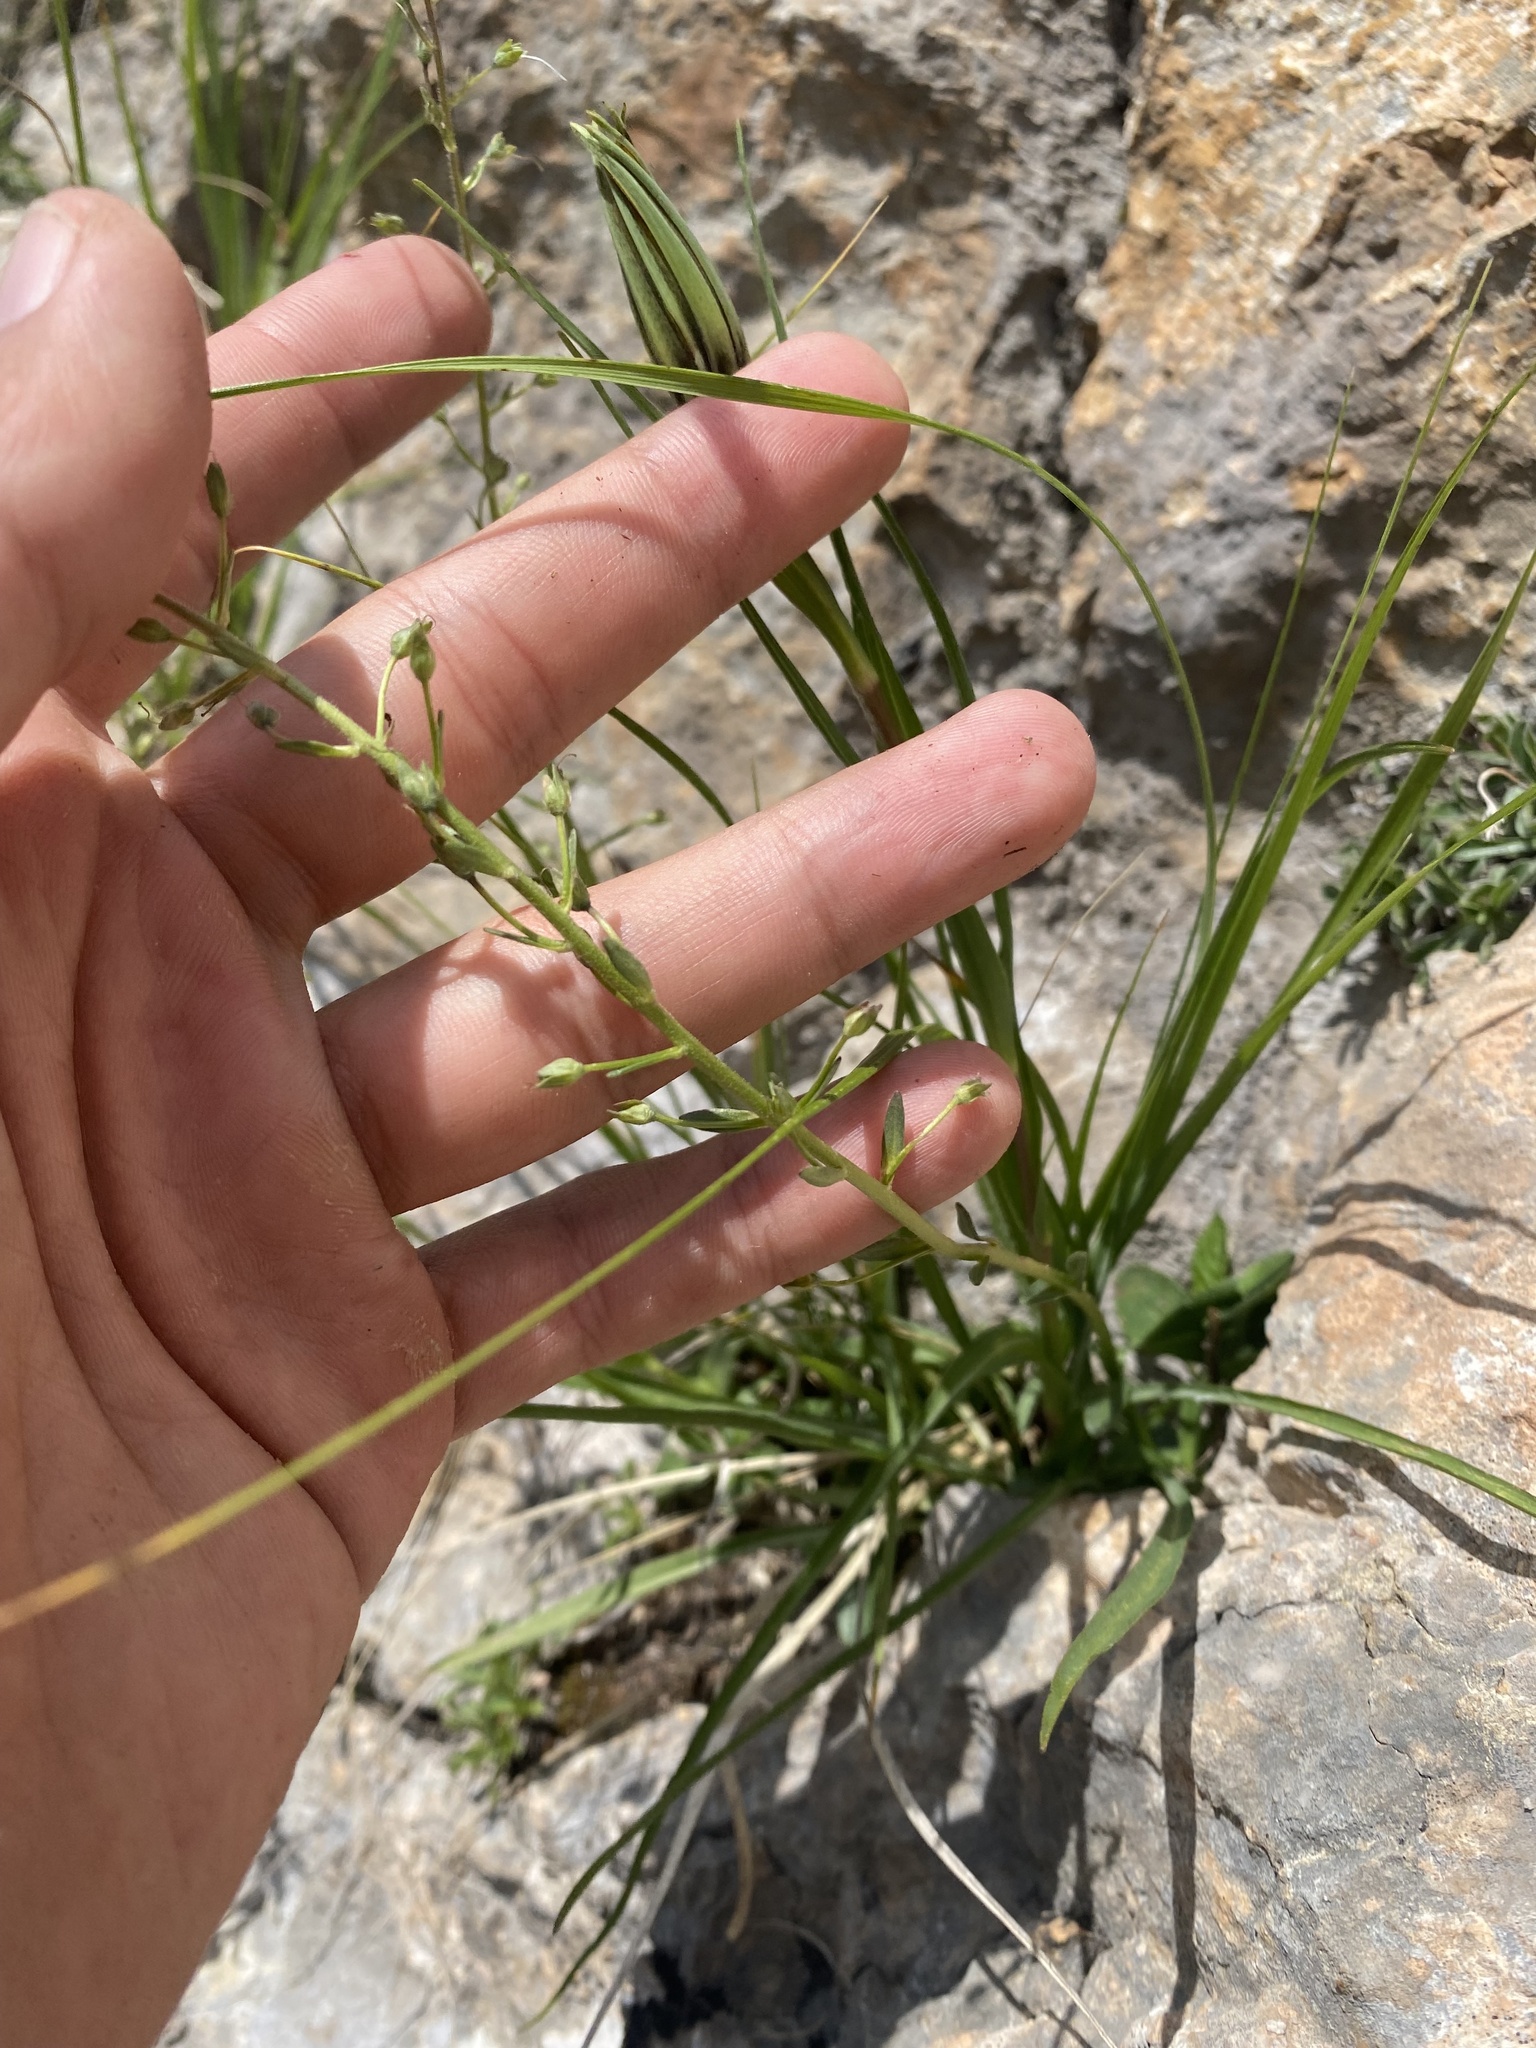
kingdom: Plantae
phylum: Tracheophyta
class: Magnoliopsida
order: Lamiales
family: Plantaginaceae
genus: Veronica
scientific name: Veronica gentianoides
